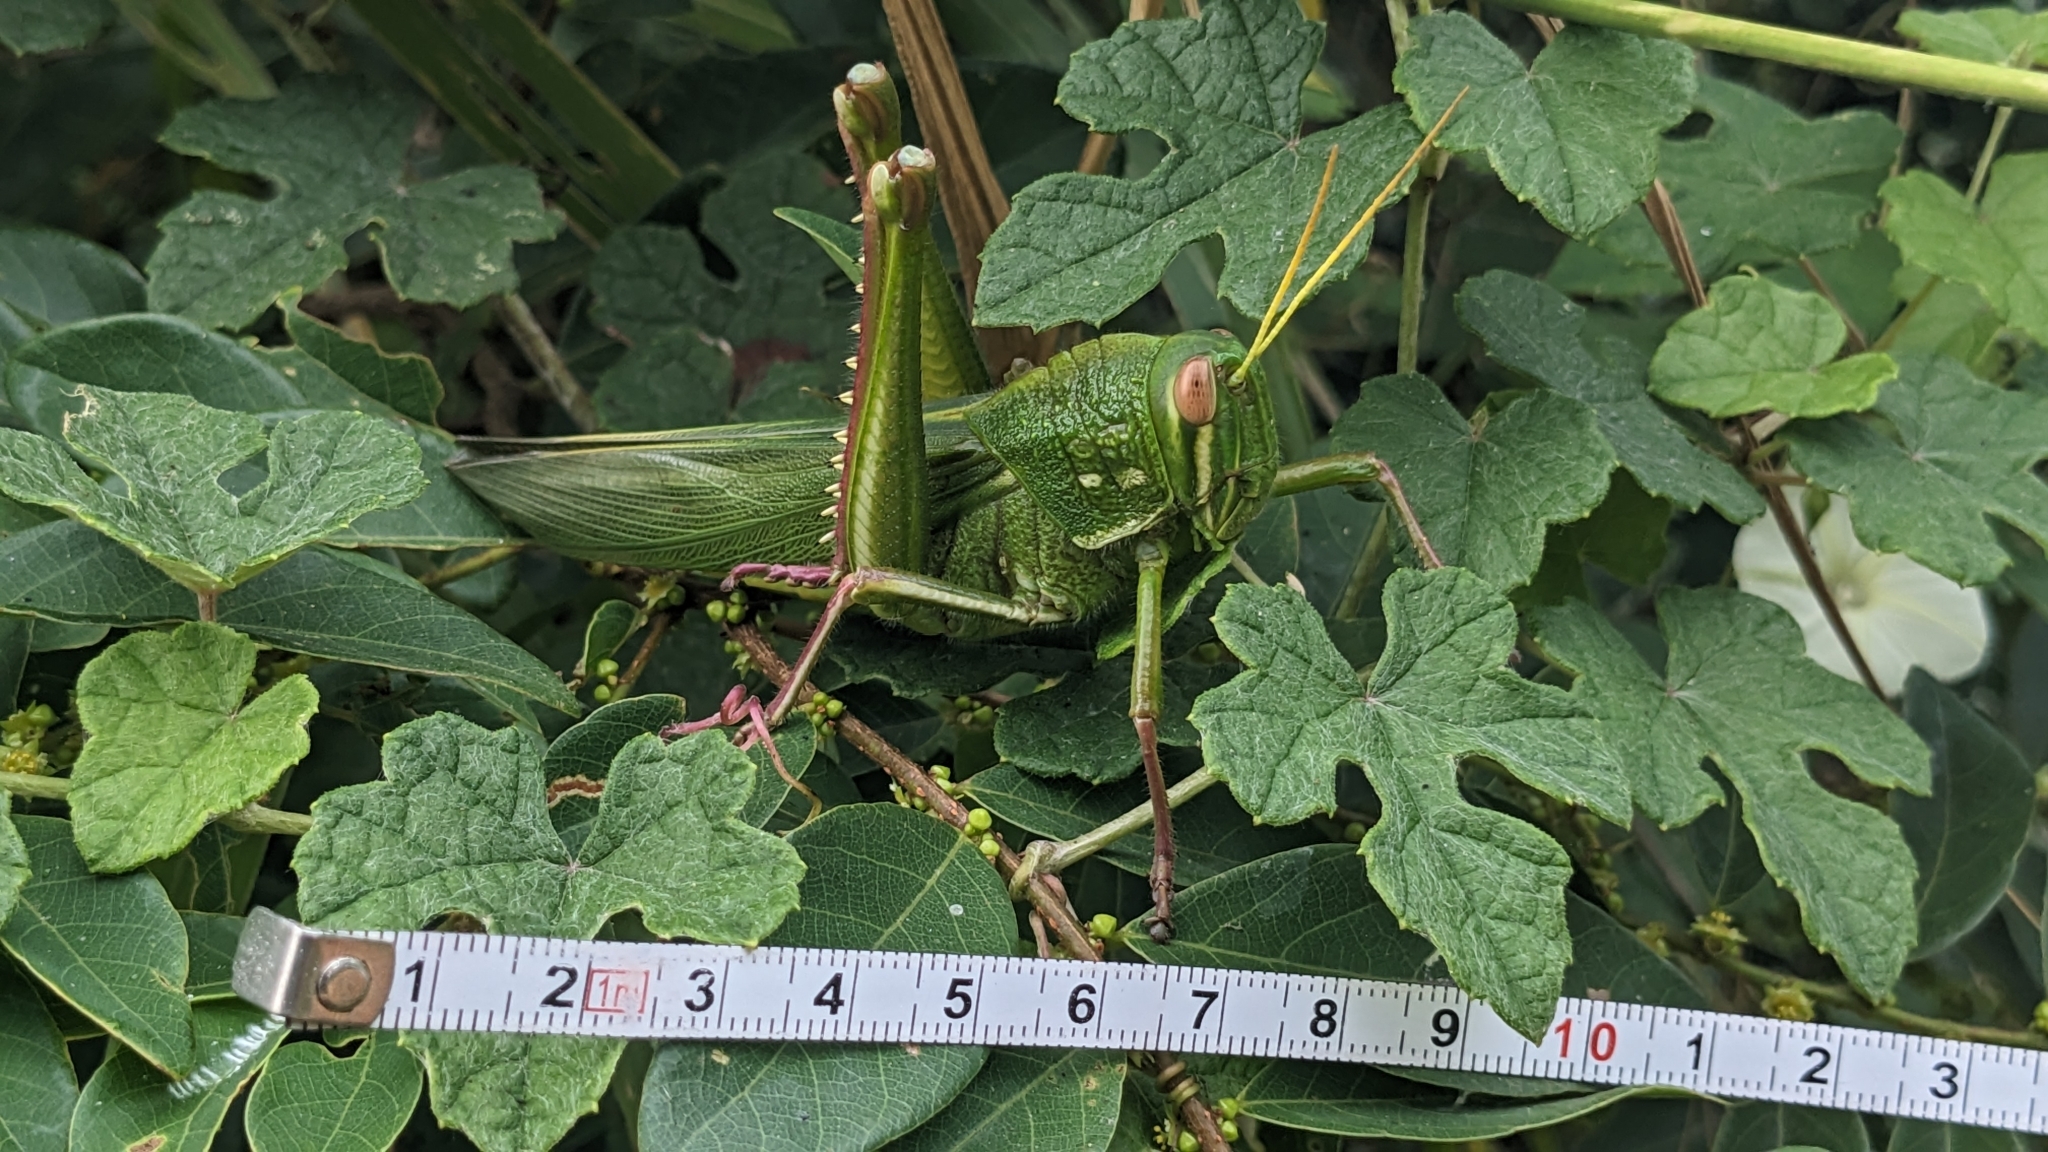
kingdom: Animalia
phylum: Arthropoda
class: Insecta
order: Orthoptera
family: Acrididae
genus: Chondracris
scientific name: Chondracris rosea
